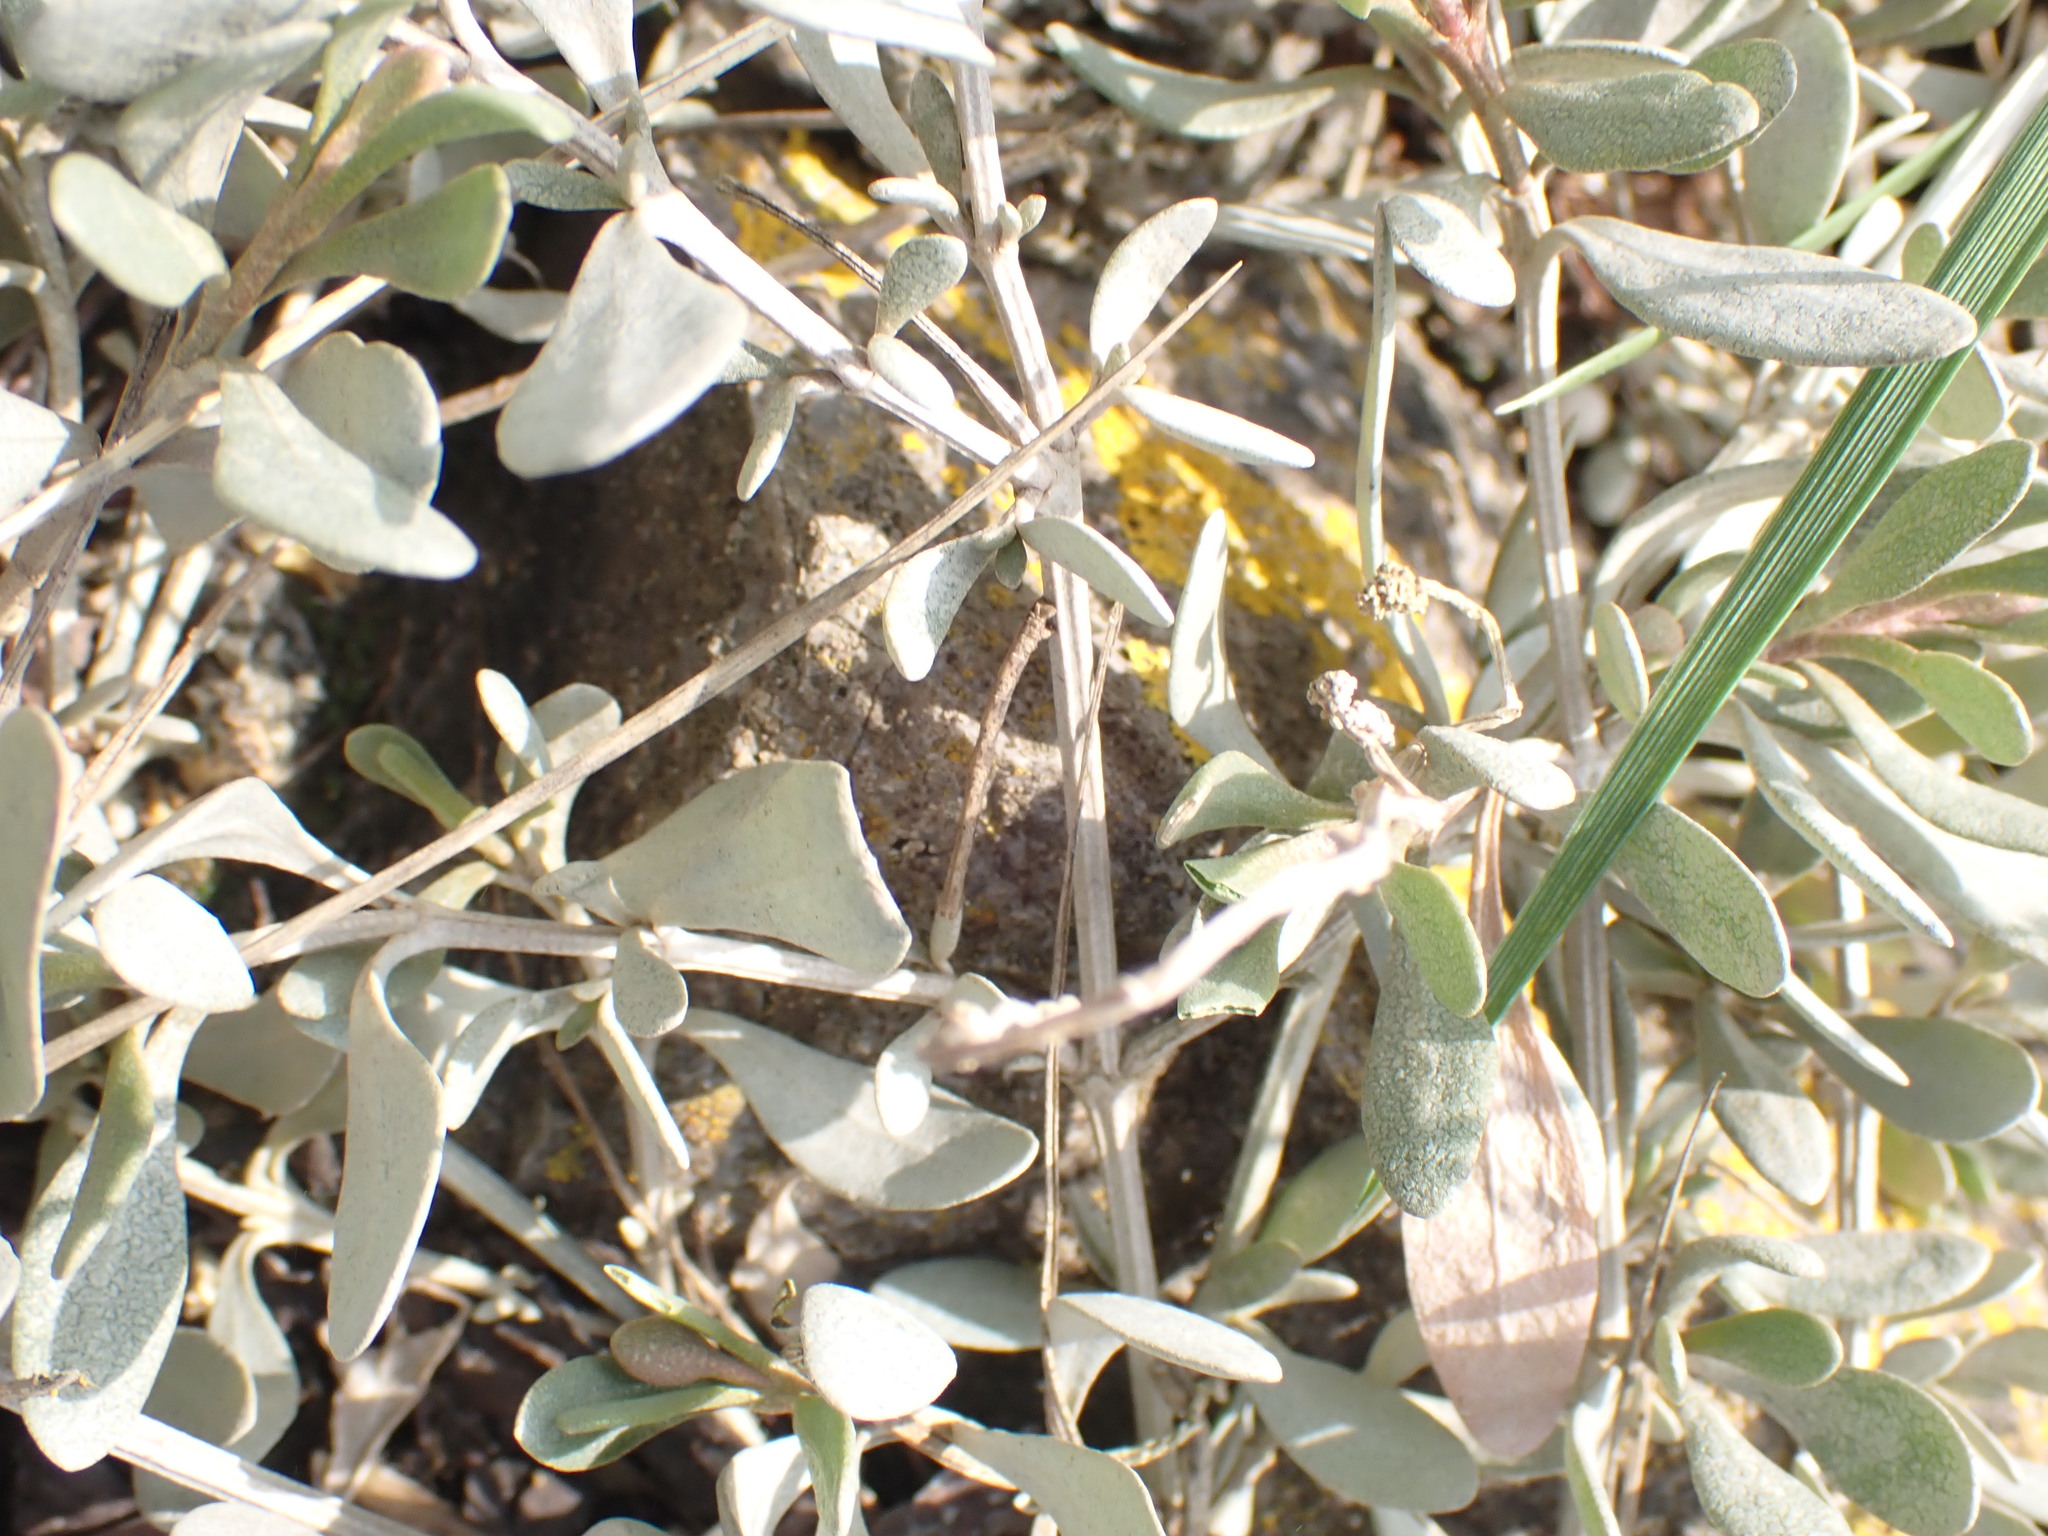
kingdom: Plantae
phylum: Tracheophyta
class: Magnoliopsida
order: Caryophyllales
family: Amaranthaceae
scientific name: Amaranthaceae
